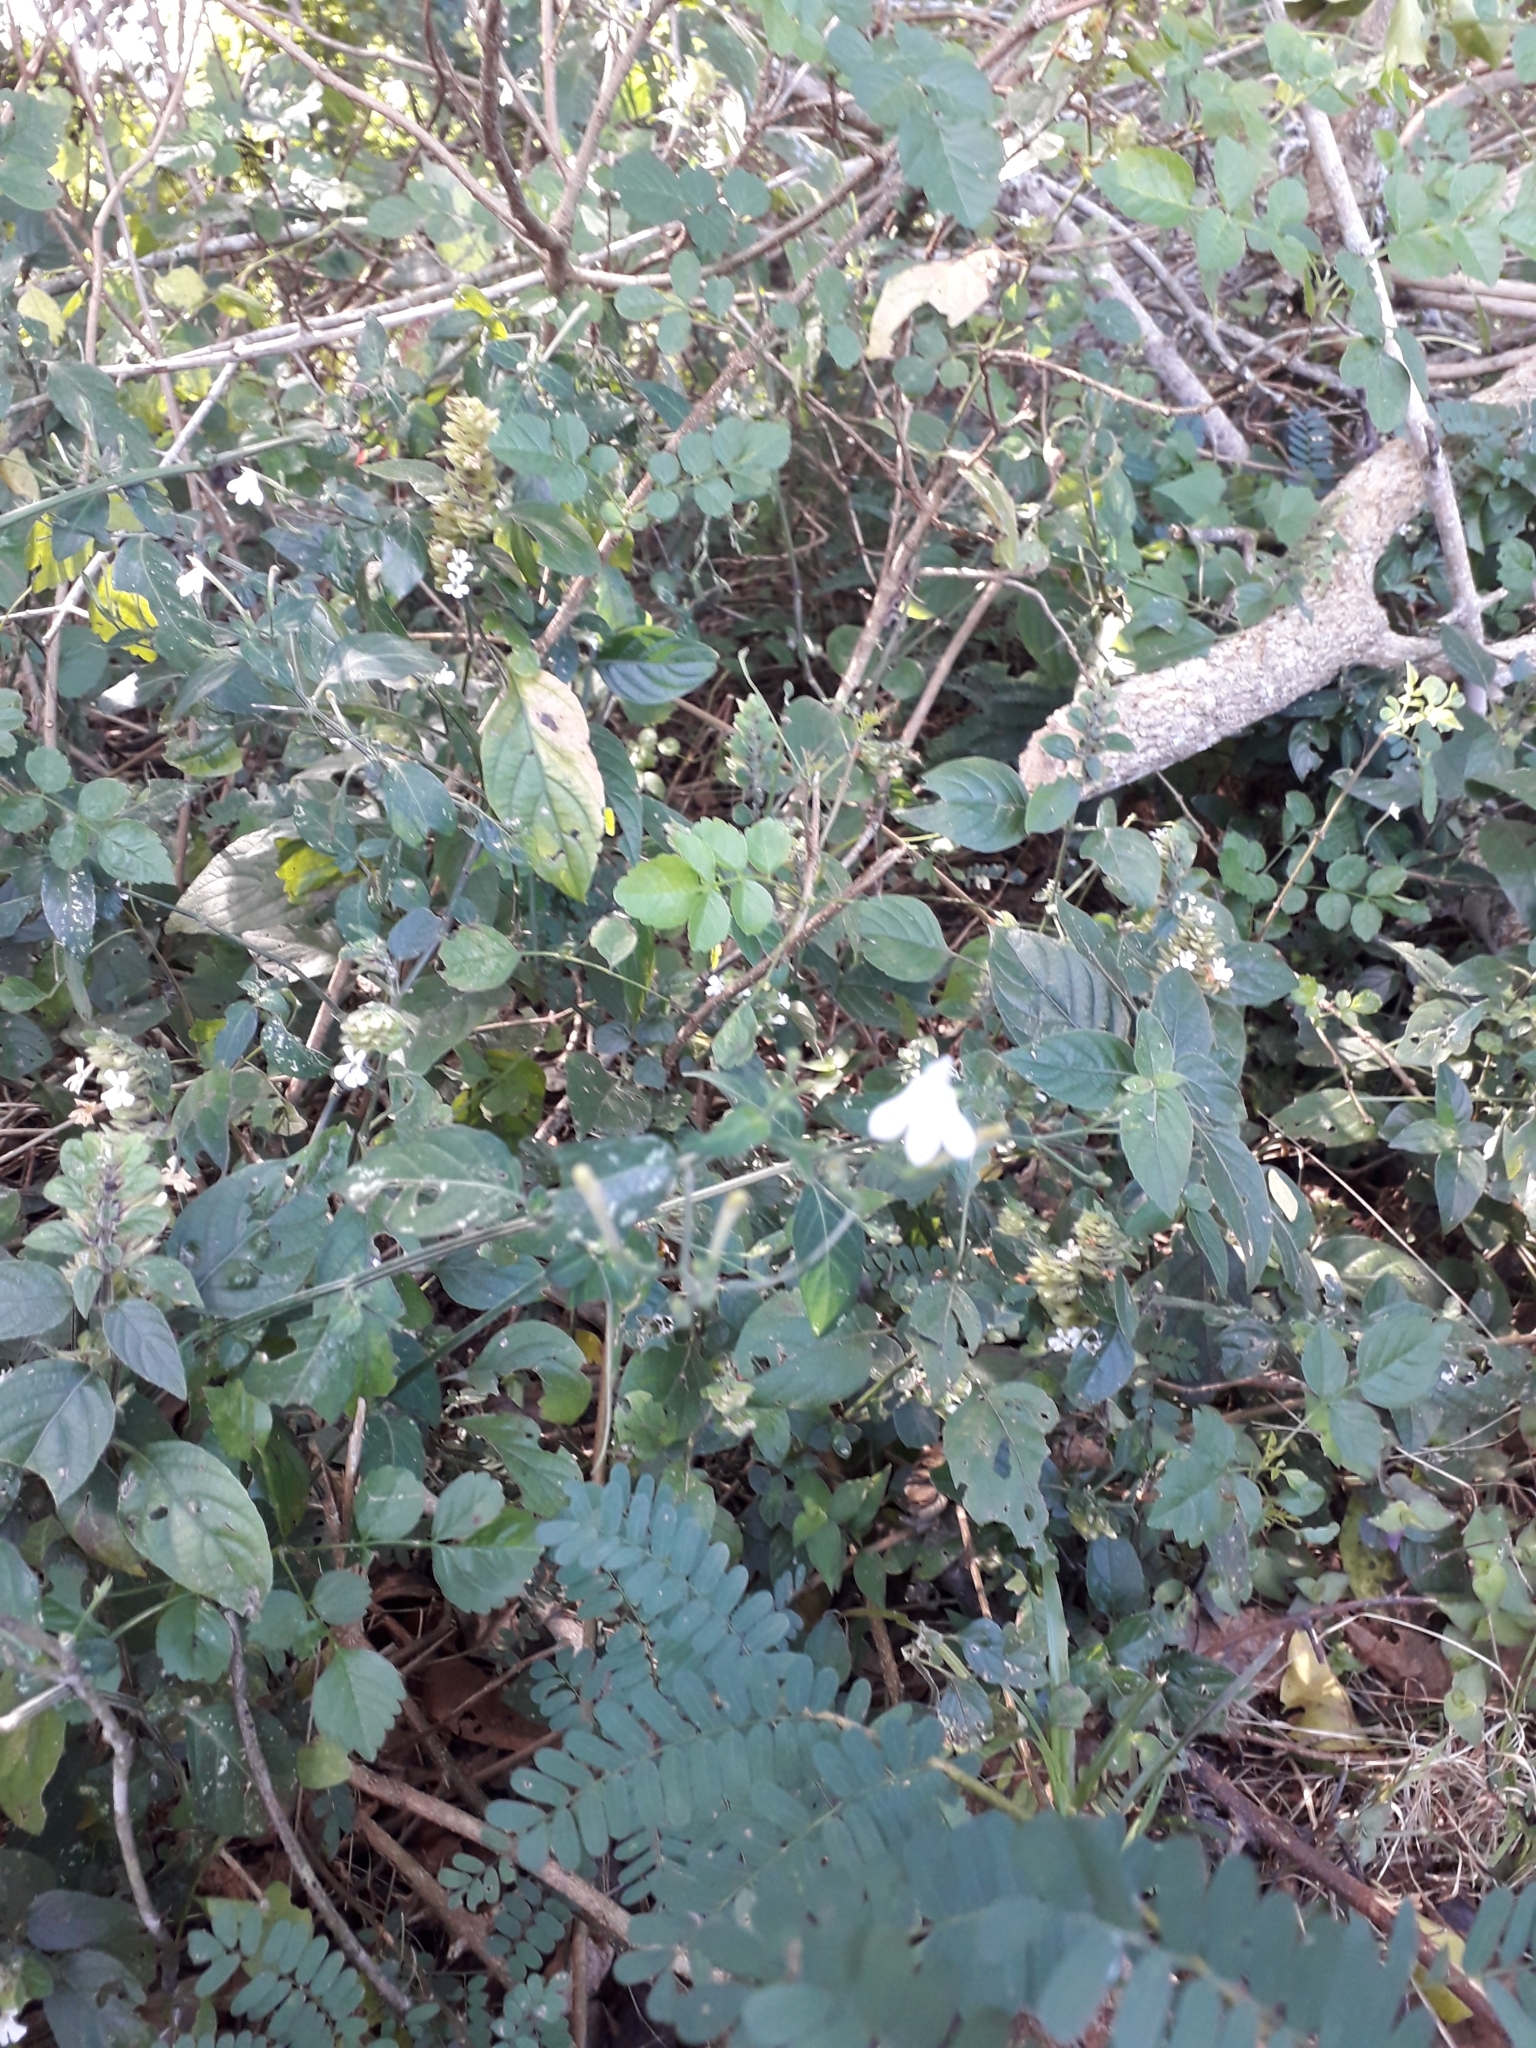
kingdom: Plantae
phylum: Tracheophyta
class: Magnoliopsida
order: Lamiales
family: Acanthaceae
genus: Rhinacanthus
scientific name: Rhinacanthus gracilis
